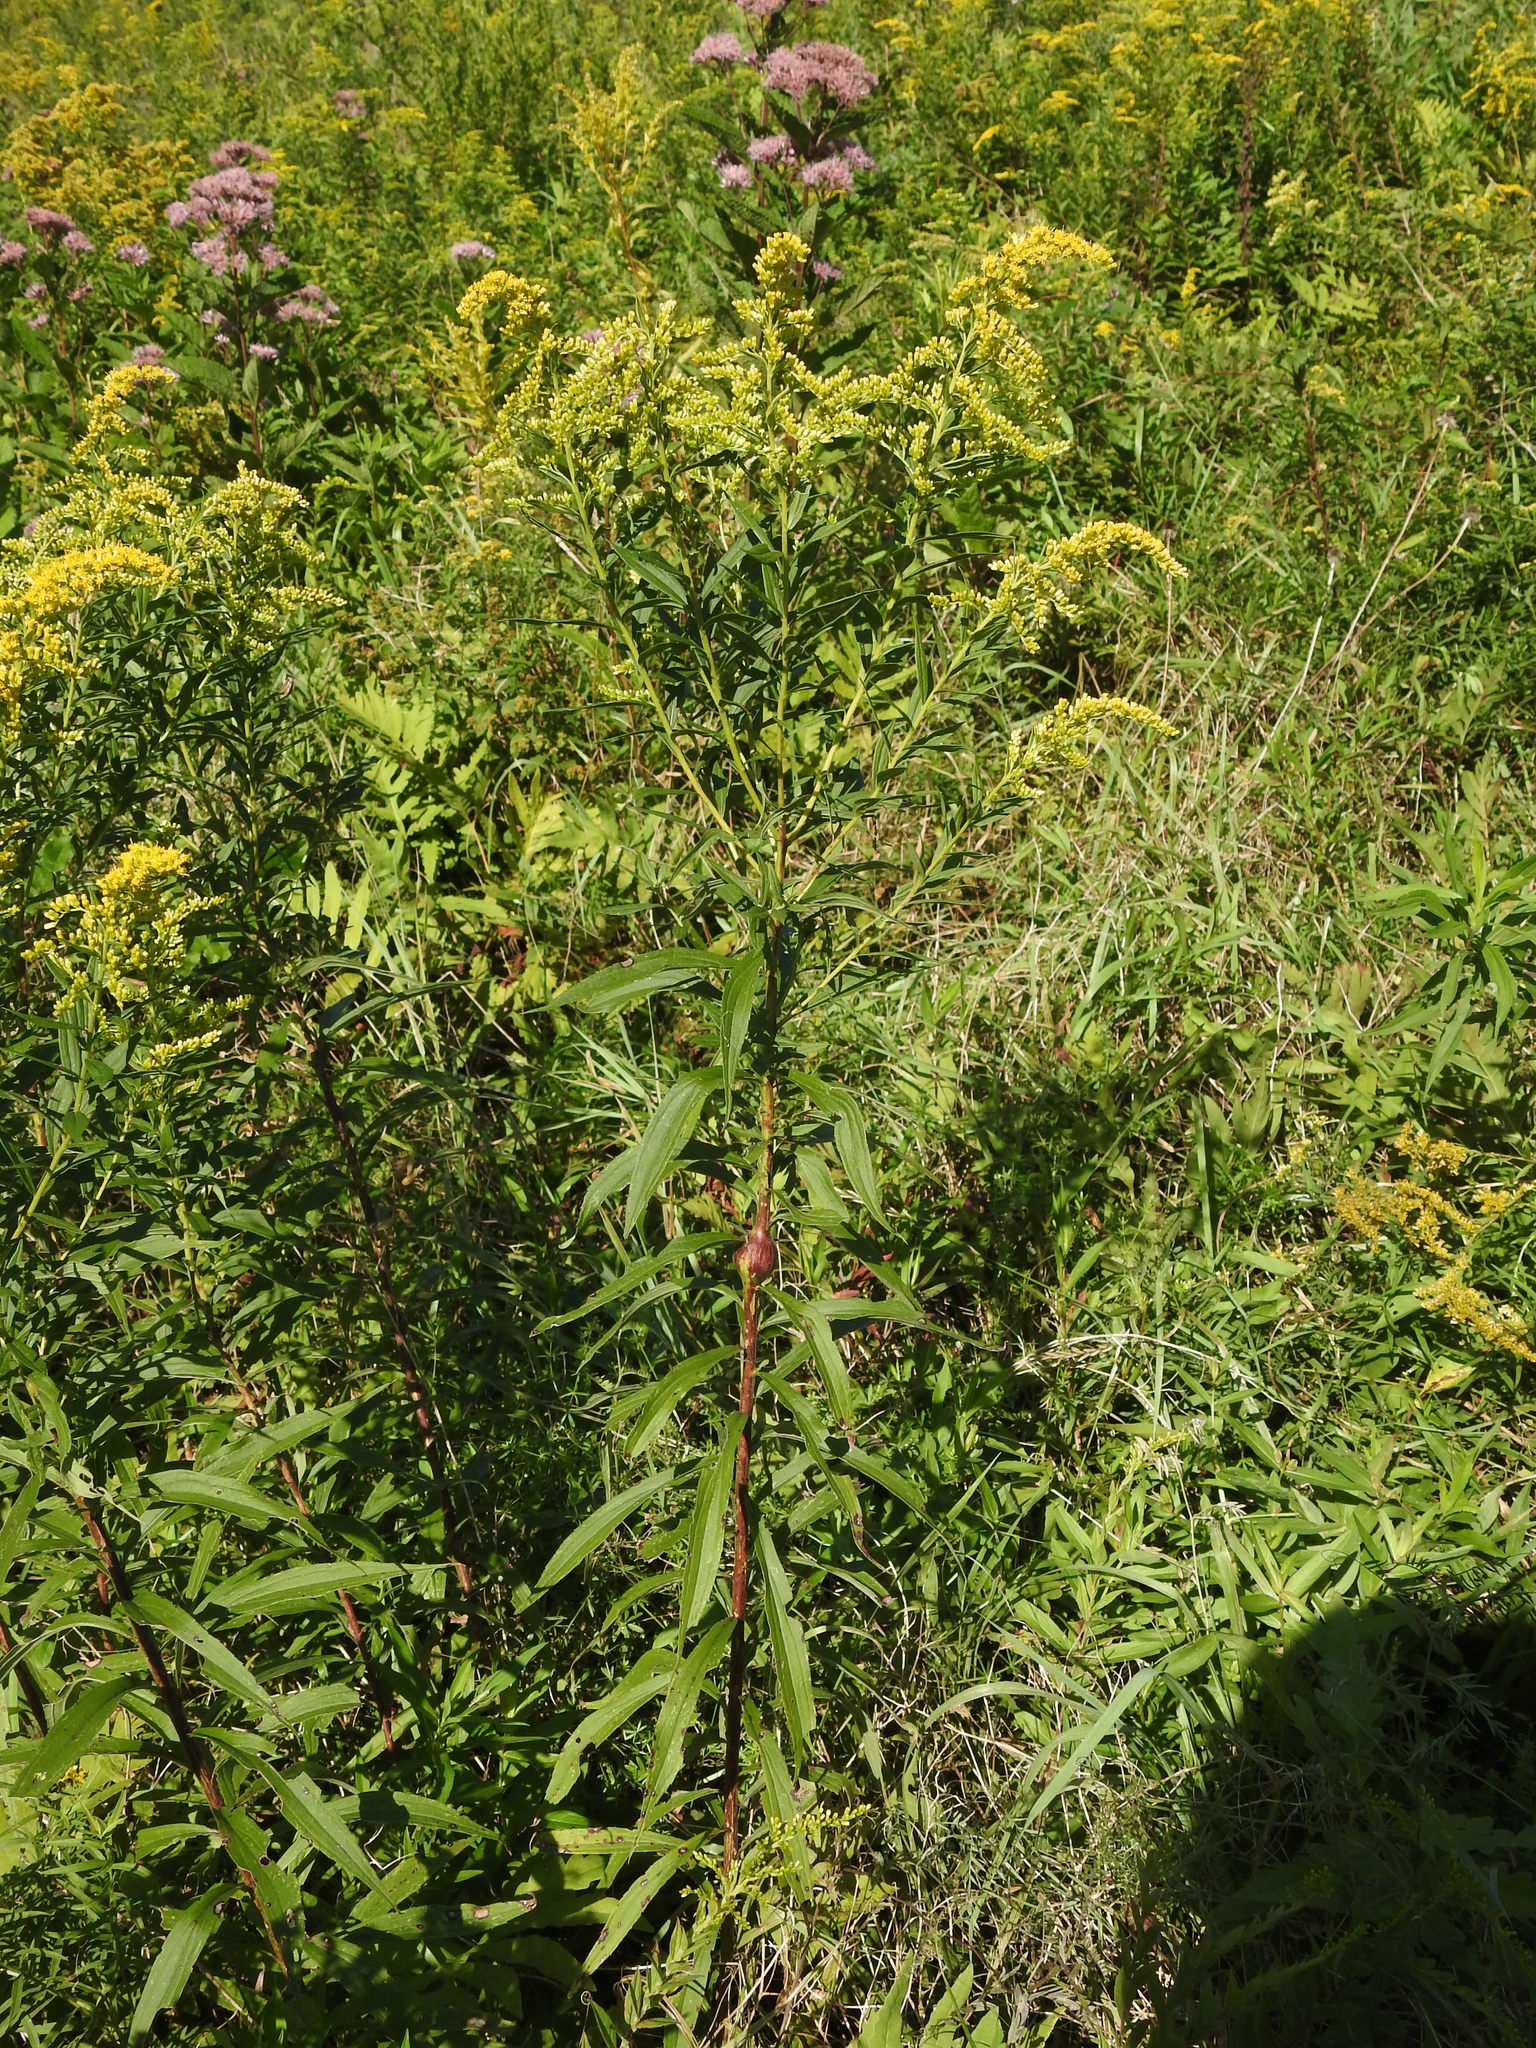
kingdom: Animalia
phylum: Arthropoda
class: Insecta
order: Diptera
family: Tephritidae
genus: Eurosta
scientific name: Eurosta solidaginis
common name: Goldenrod gall fly
